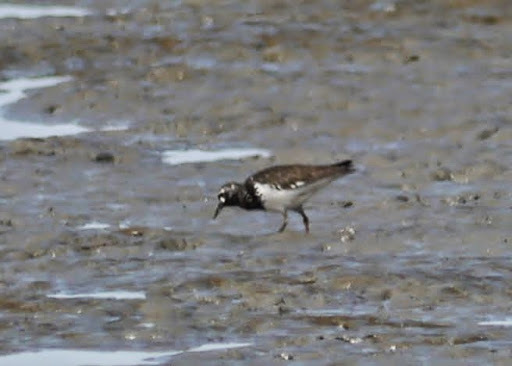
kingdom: Animalia
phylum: Chordata
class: Aves
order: Charadriiformes
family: Scolopacidae
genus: Arenaria
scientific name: Arenaria melanocephala
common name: Black turnstone
